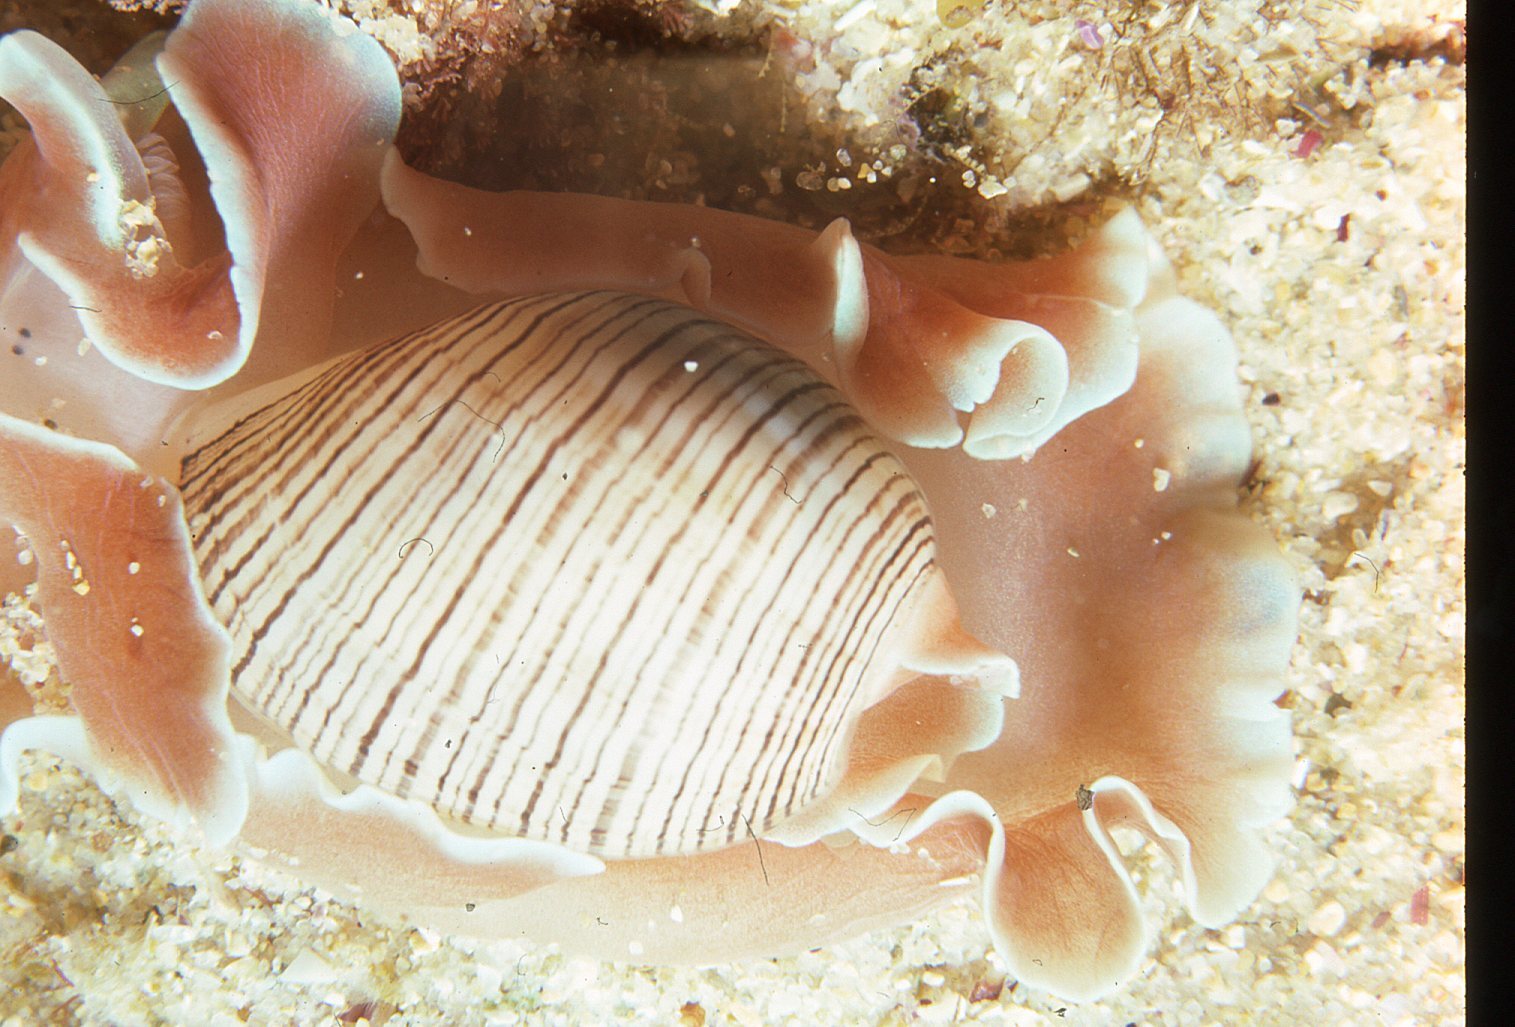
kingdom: Animalia
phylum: Mollusca
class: Gastropoda
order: Cephalaspidea
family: Aplustridae
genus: Hydatina
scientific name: Hydatina physis
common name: Brown-line paperbubble
